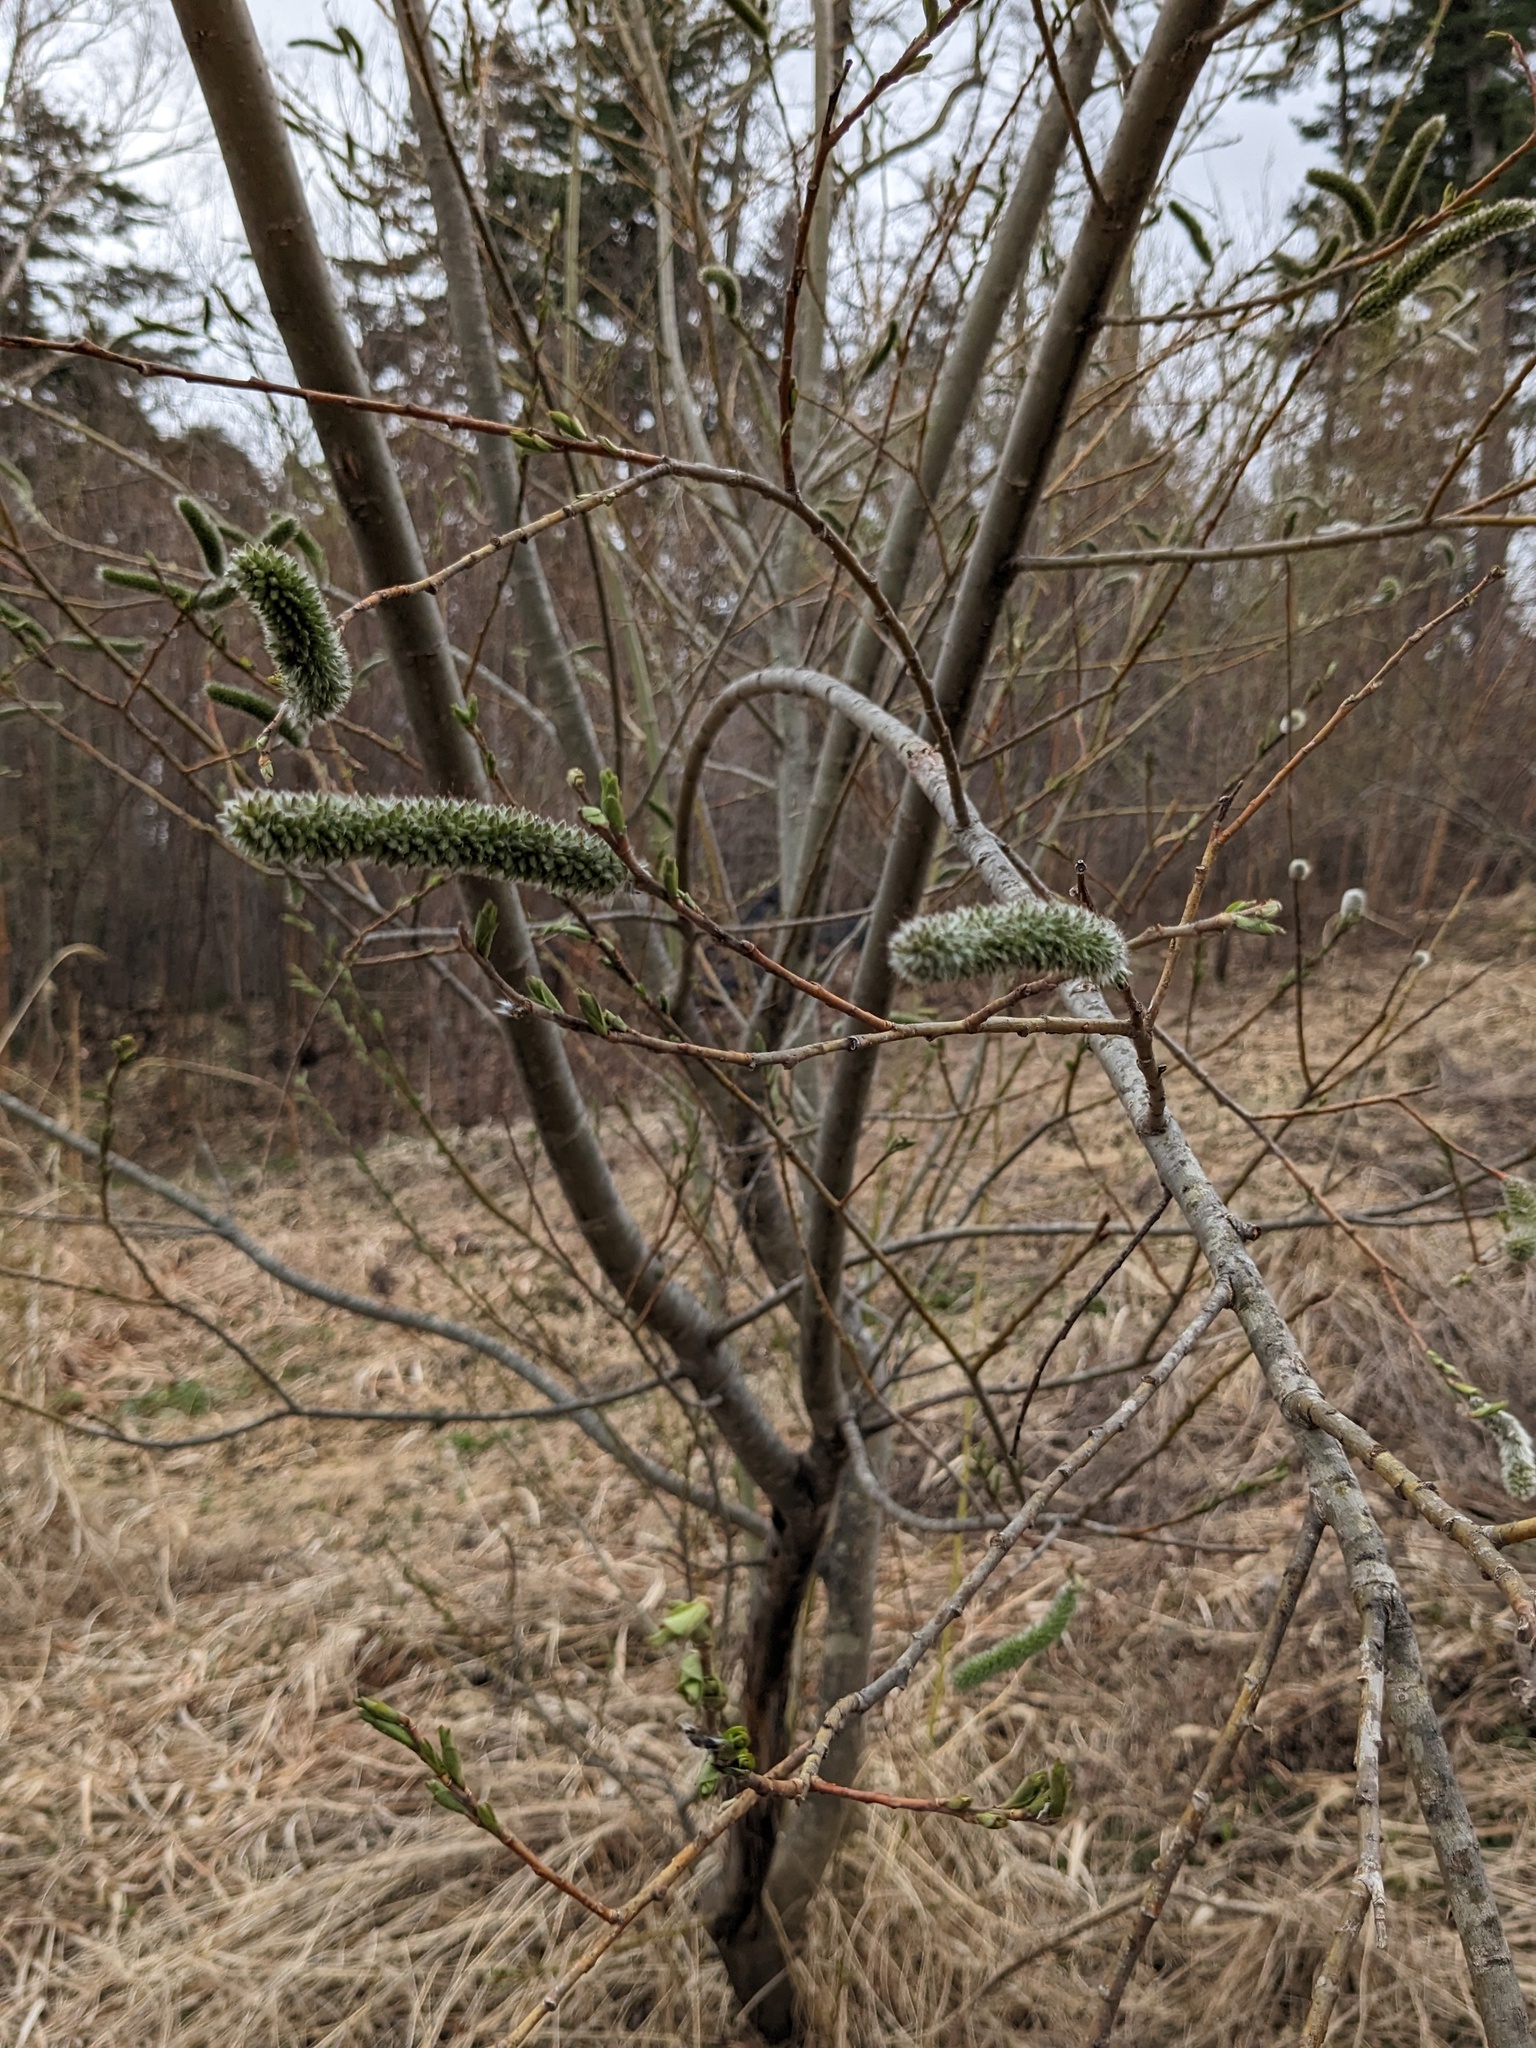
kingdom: Plantae
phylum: Tracheophyta
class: Magnoliopsida
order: Malpighiales
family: Salicaceae
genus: Salix
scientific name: Salix gracilistyla
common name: Rose-gold pussy willow
